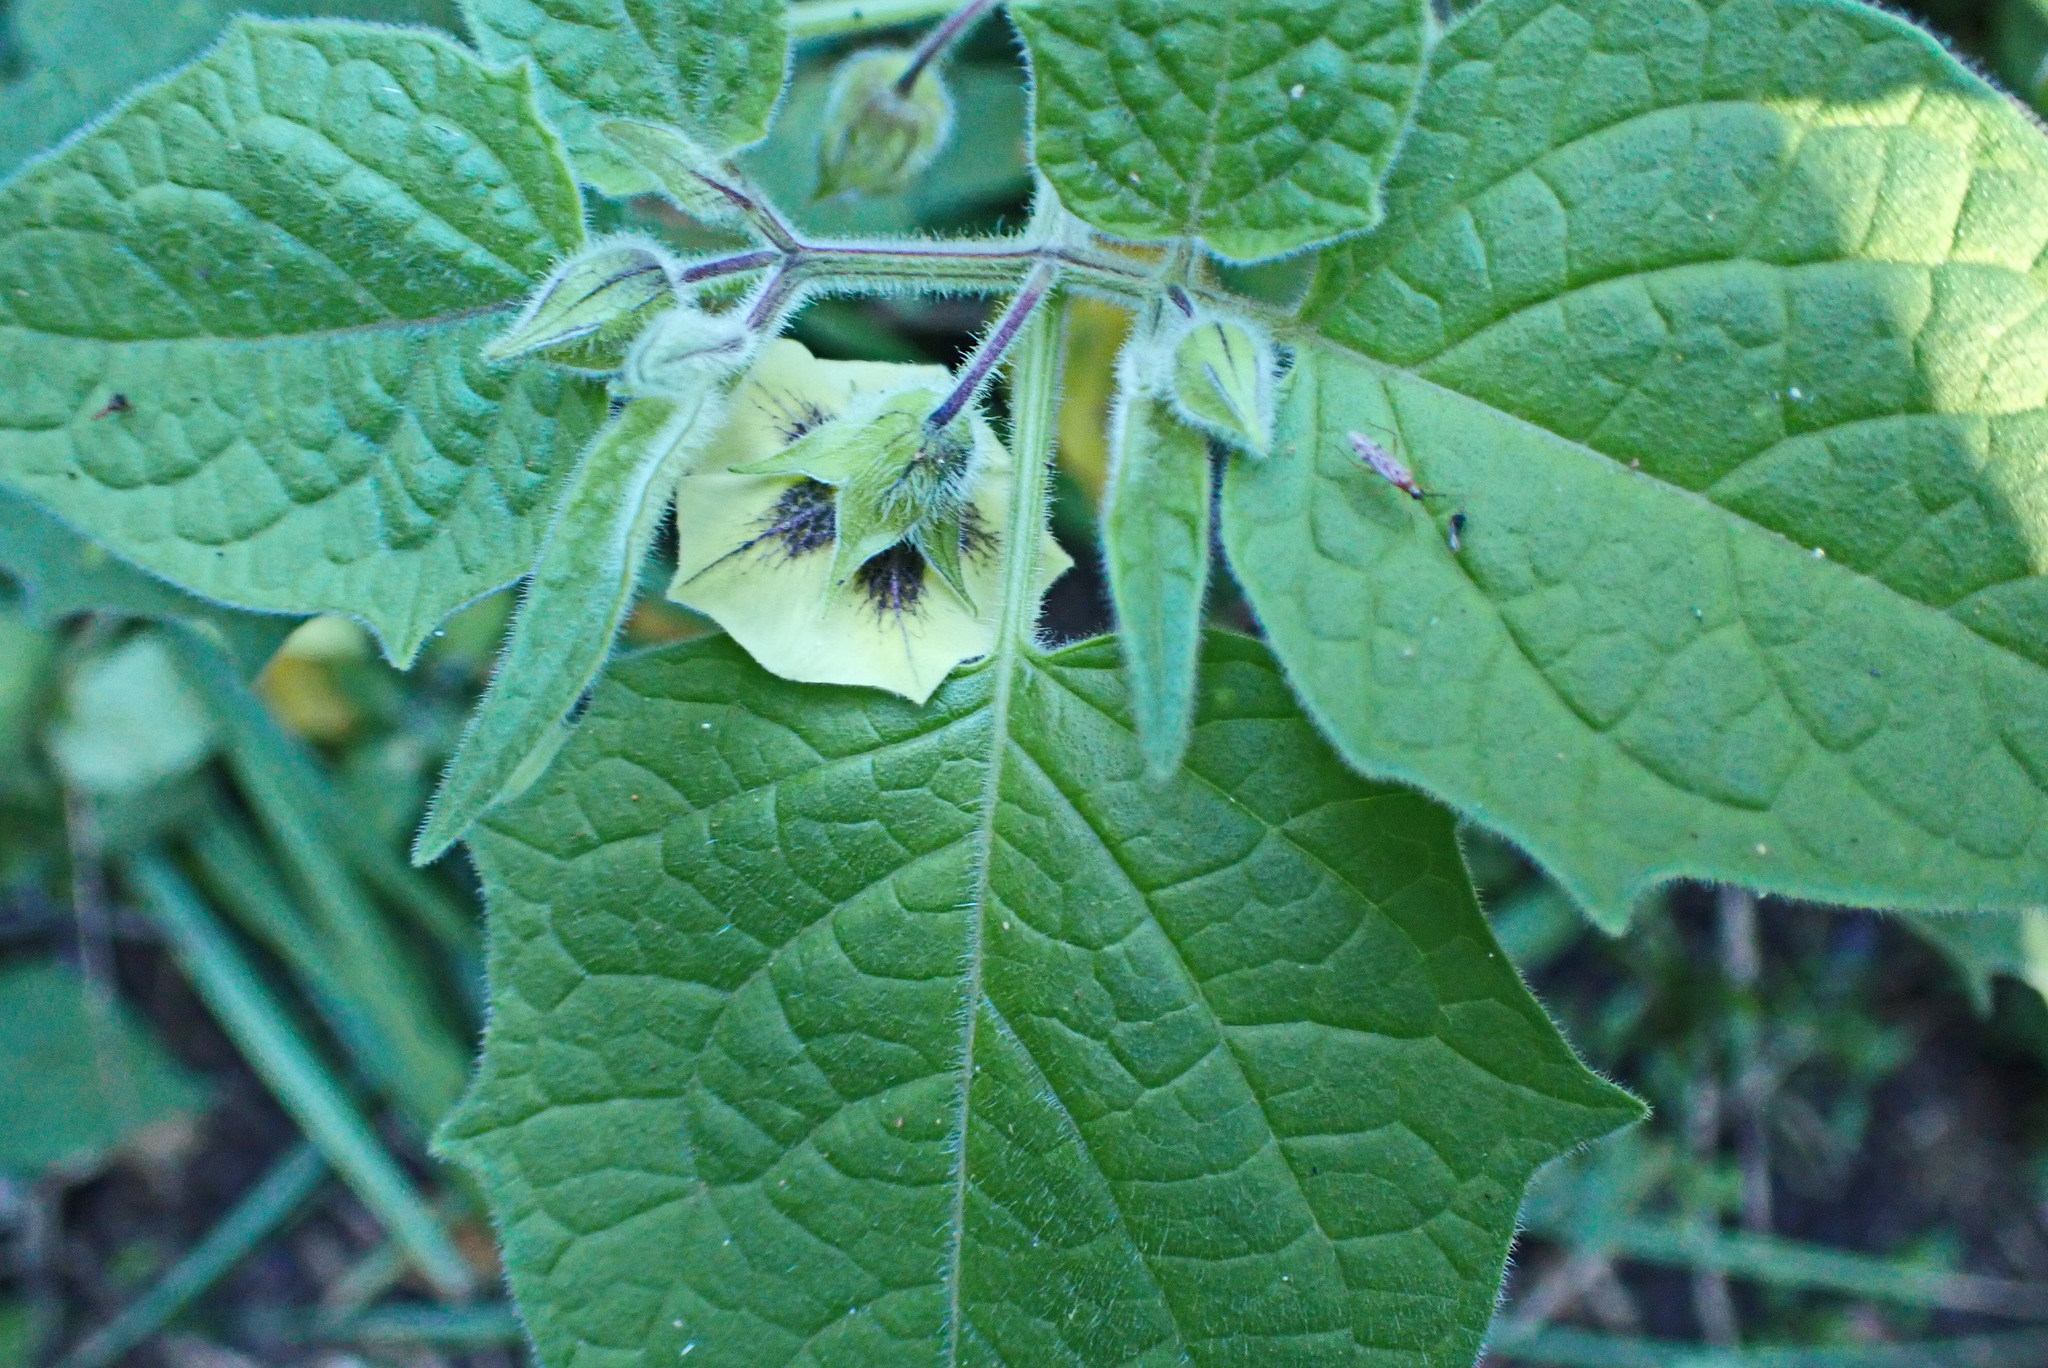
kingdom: Plantae
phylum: Tracheophyta
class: Magnoliopsida
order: Solanales
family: Solanaceae
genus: Physalis
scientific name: Physalis peruviana
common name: Cape-gooseberry
